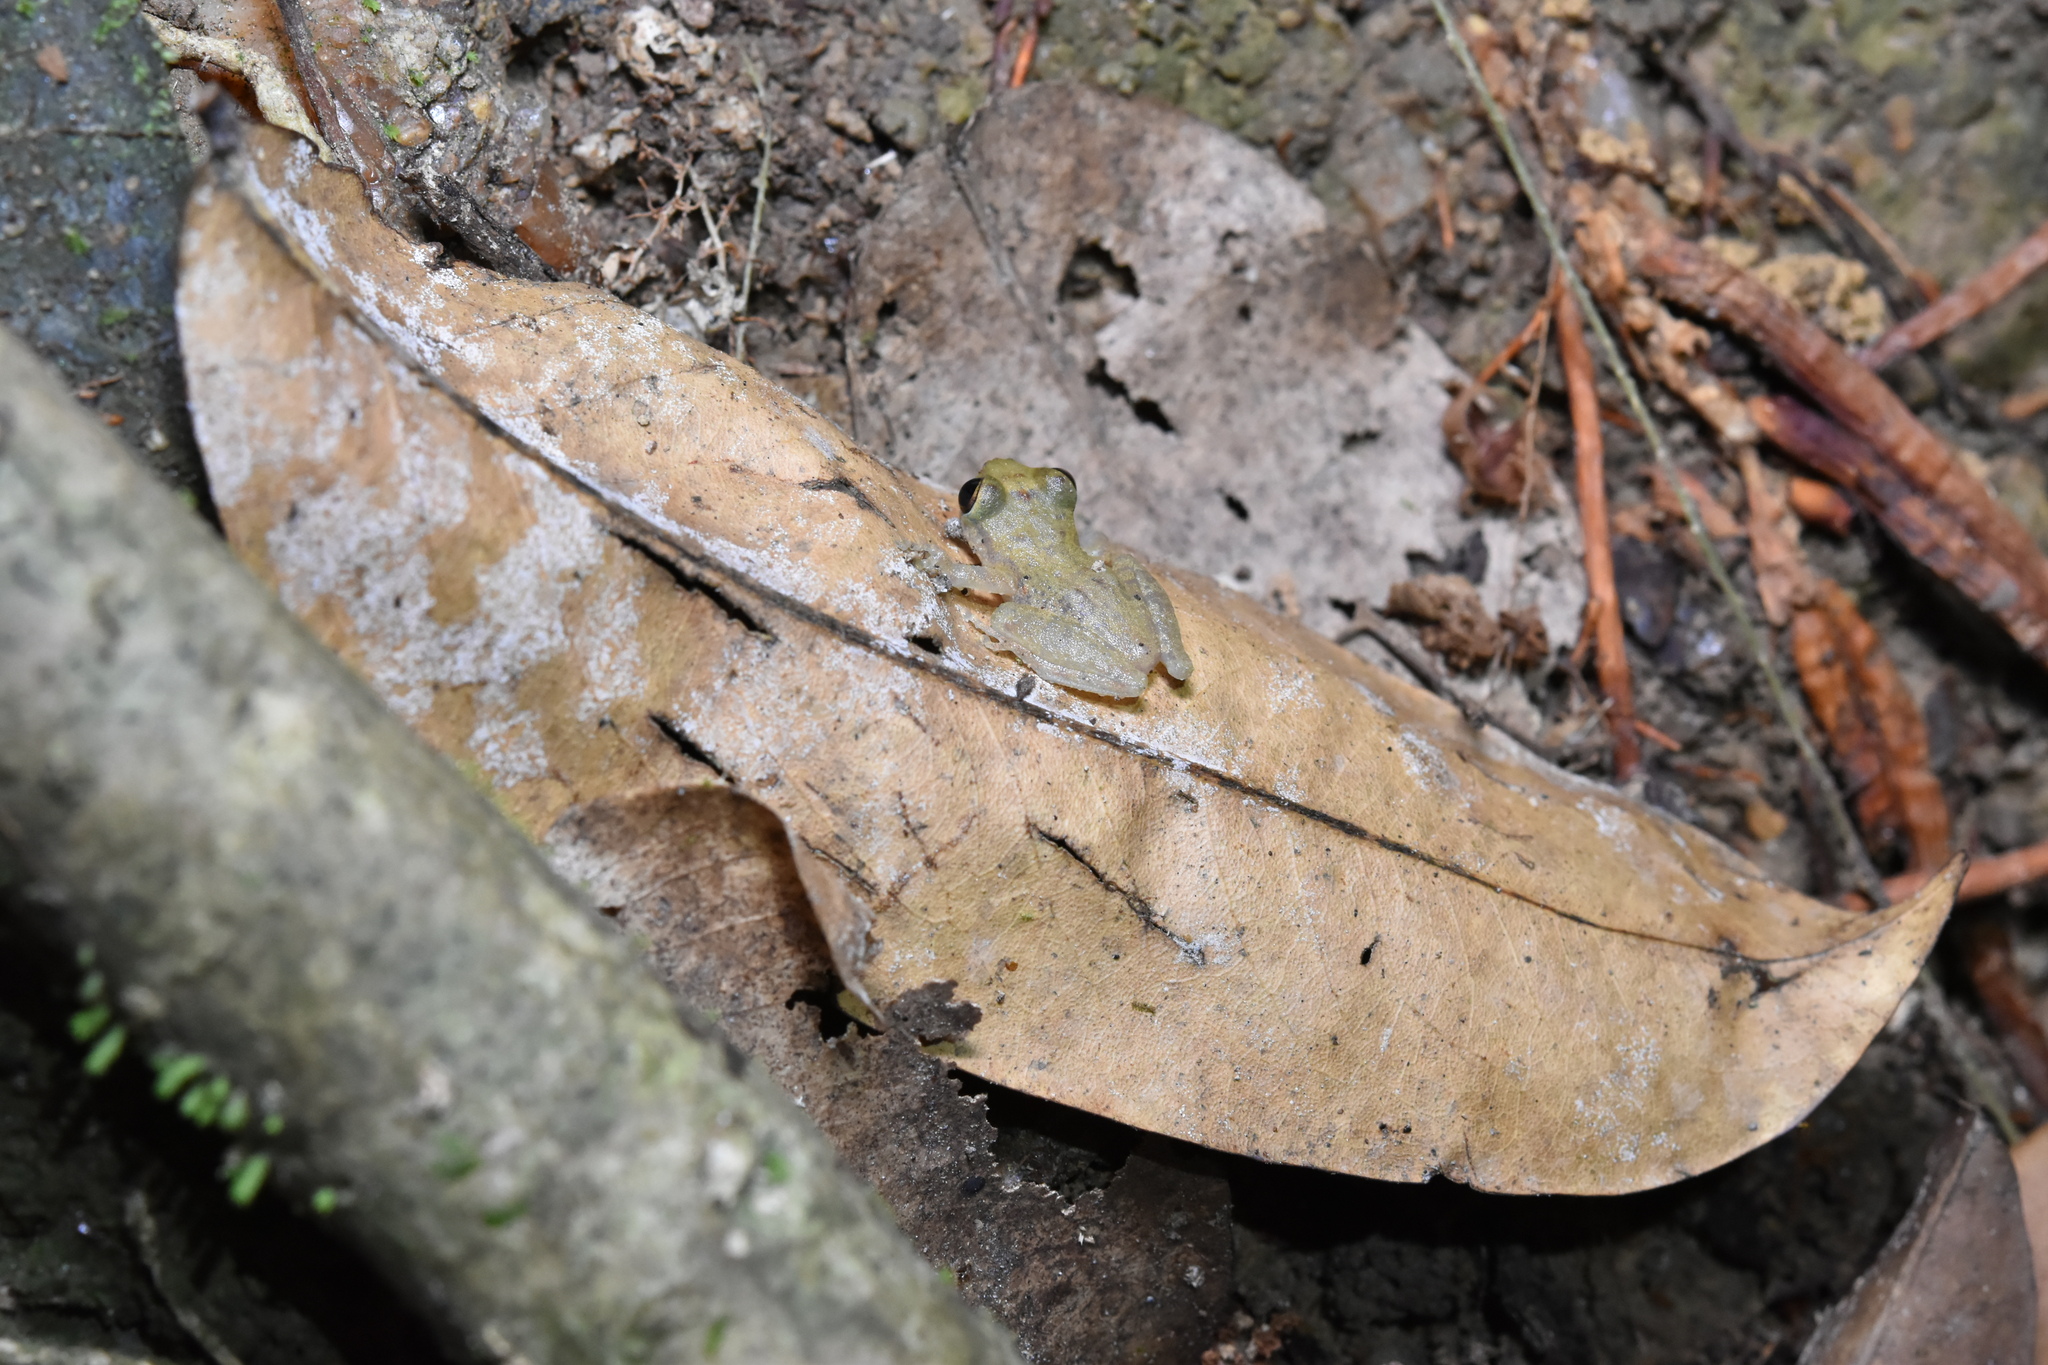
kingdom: Animalia
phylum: Chordata
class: Amphibia
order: Anura
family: Hemiphractidae
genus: Flectonotus
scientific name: Flectonotus fitzgeraldi
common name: Marsupial frog
